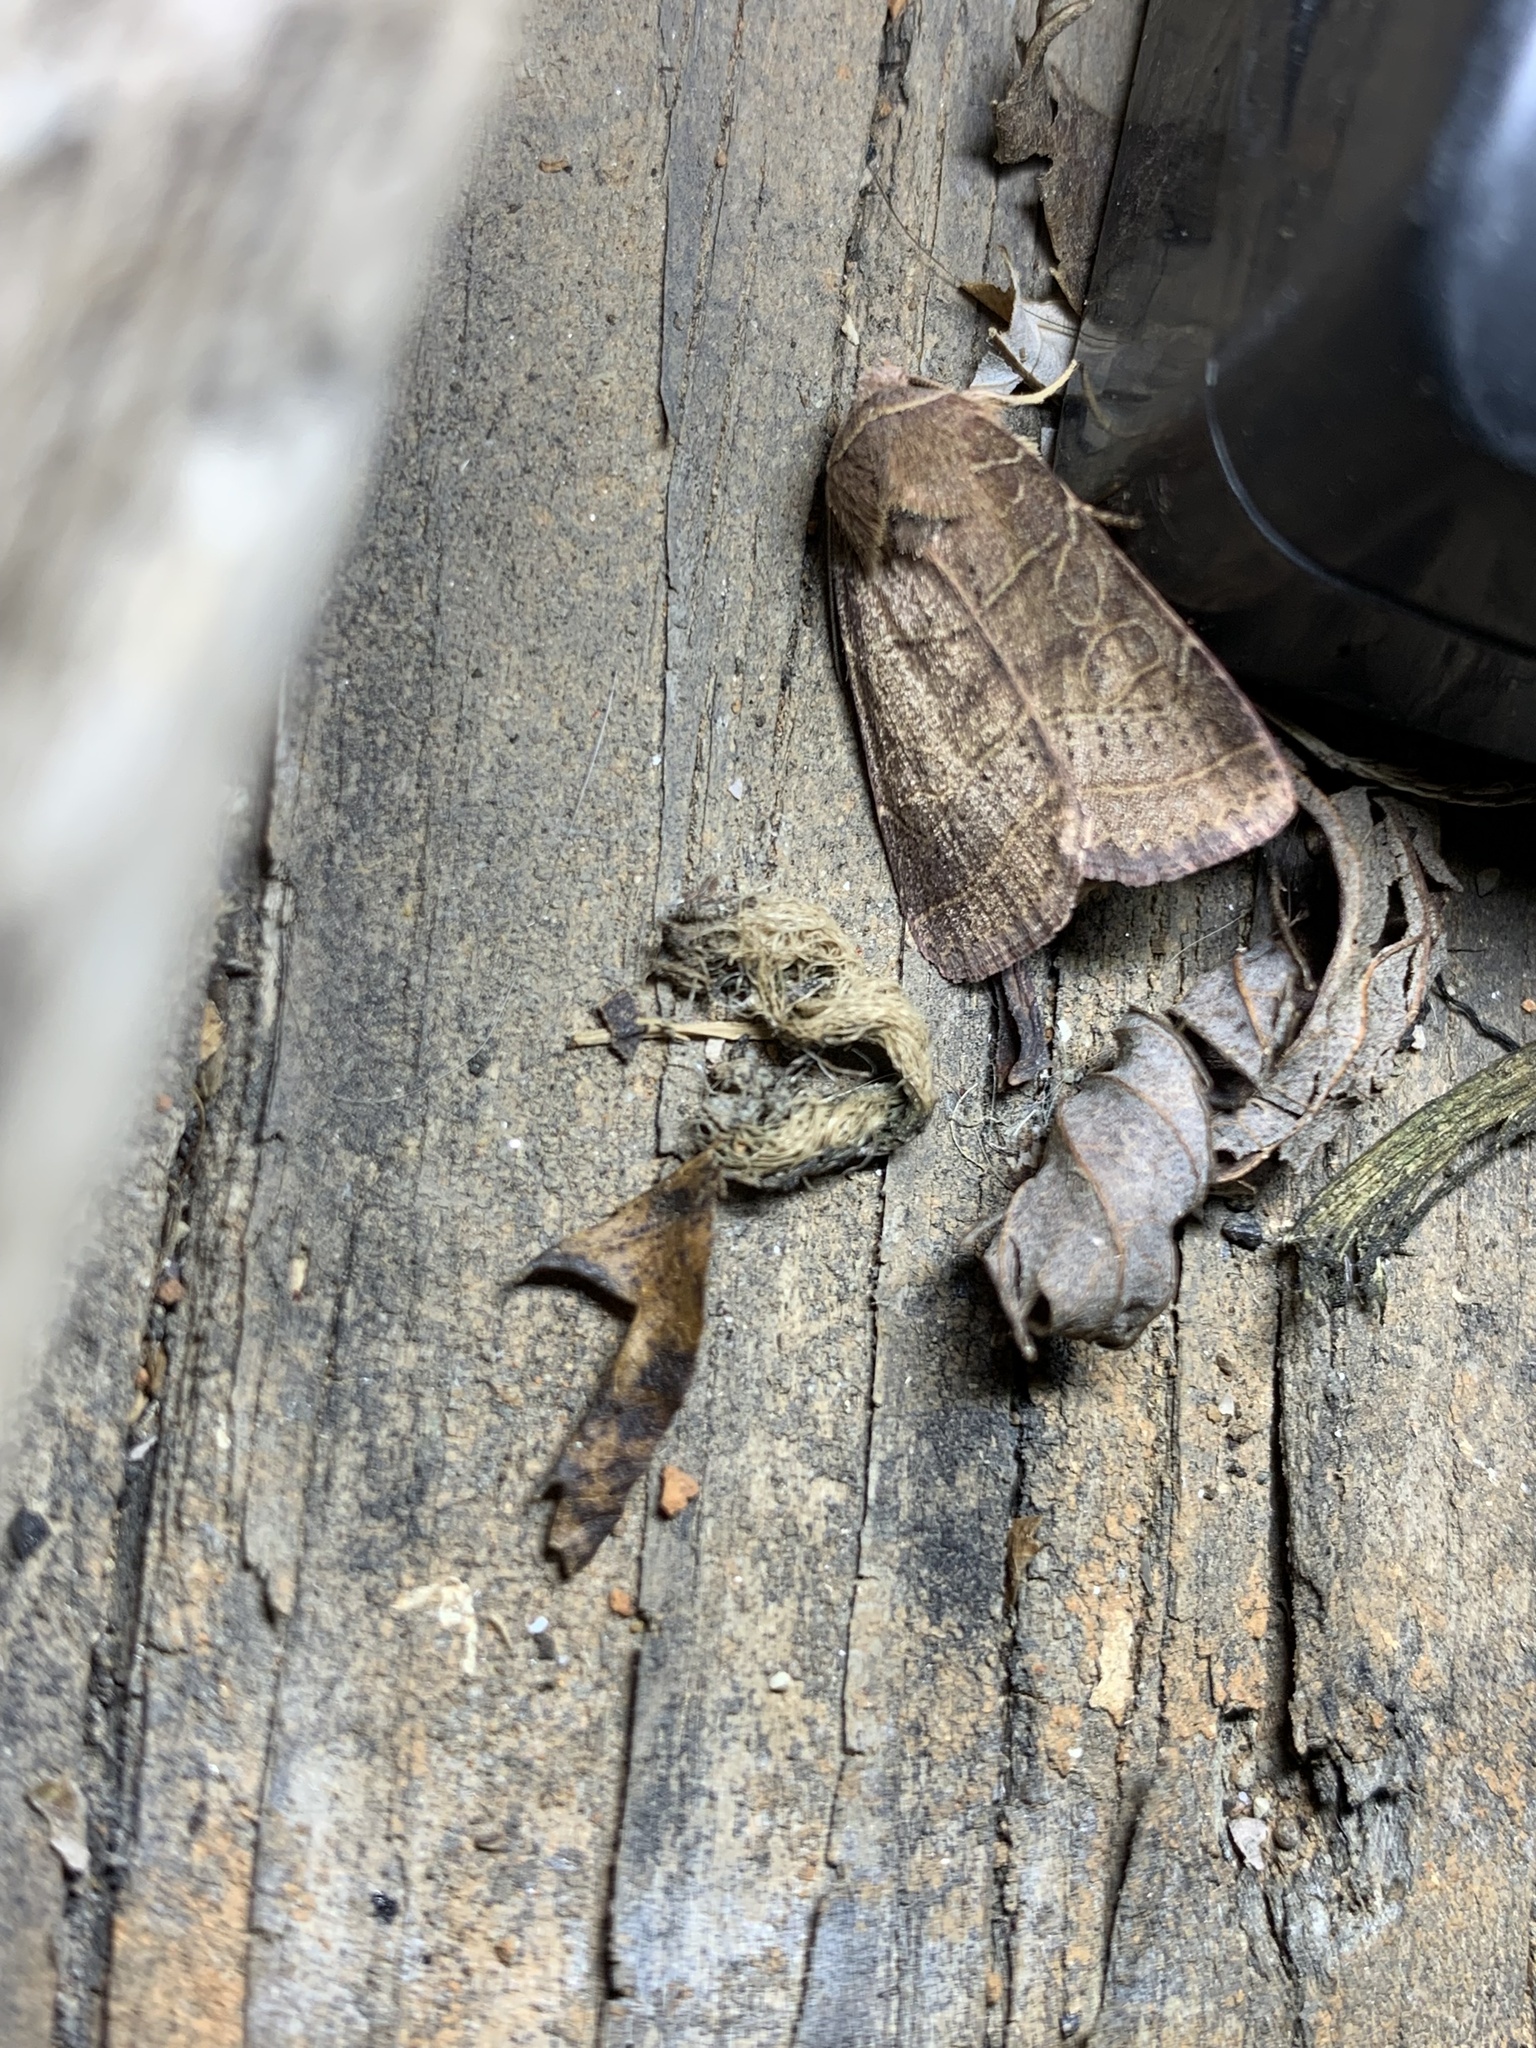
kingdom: Animalia
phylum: Arthropoda
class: Insecta
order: Lepidoptera
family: Noctuidae
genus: Orthodes
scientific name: Orthodes majuscula
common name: Rustic quaker
